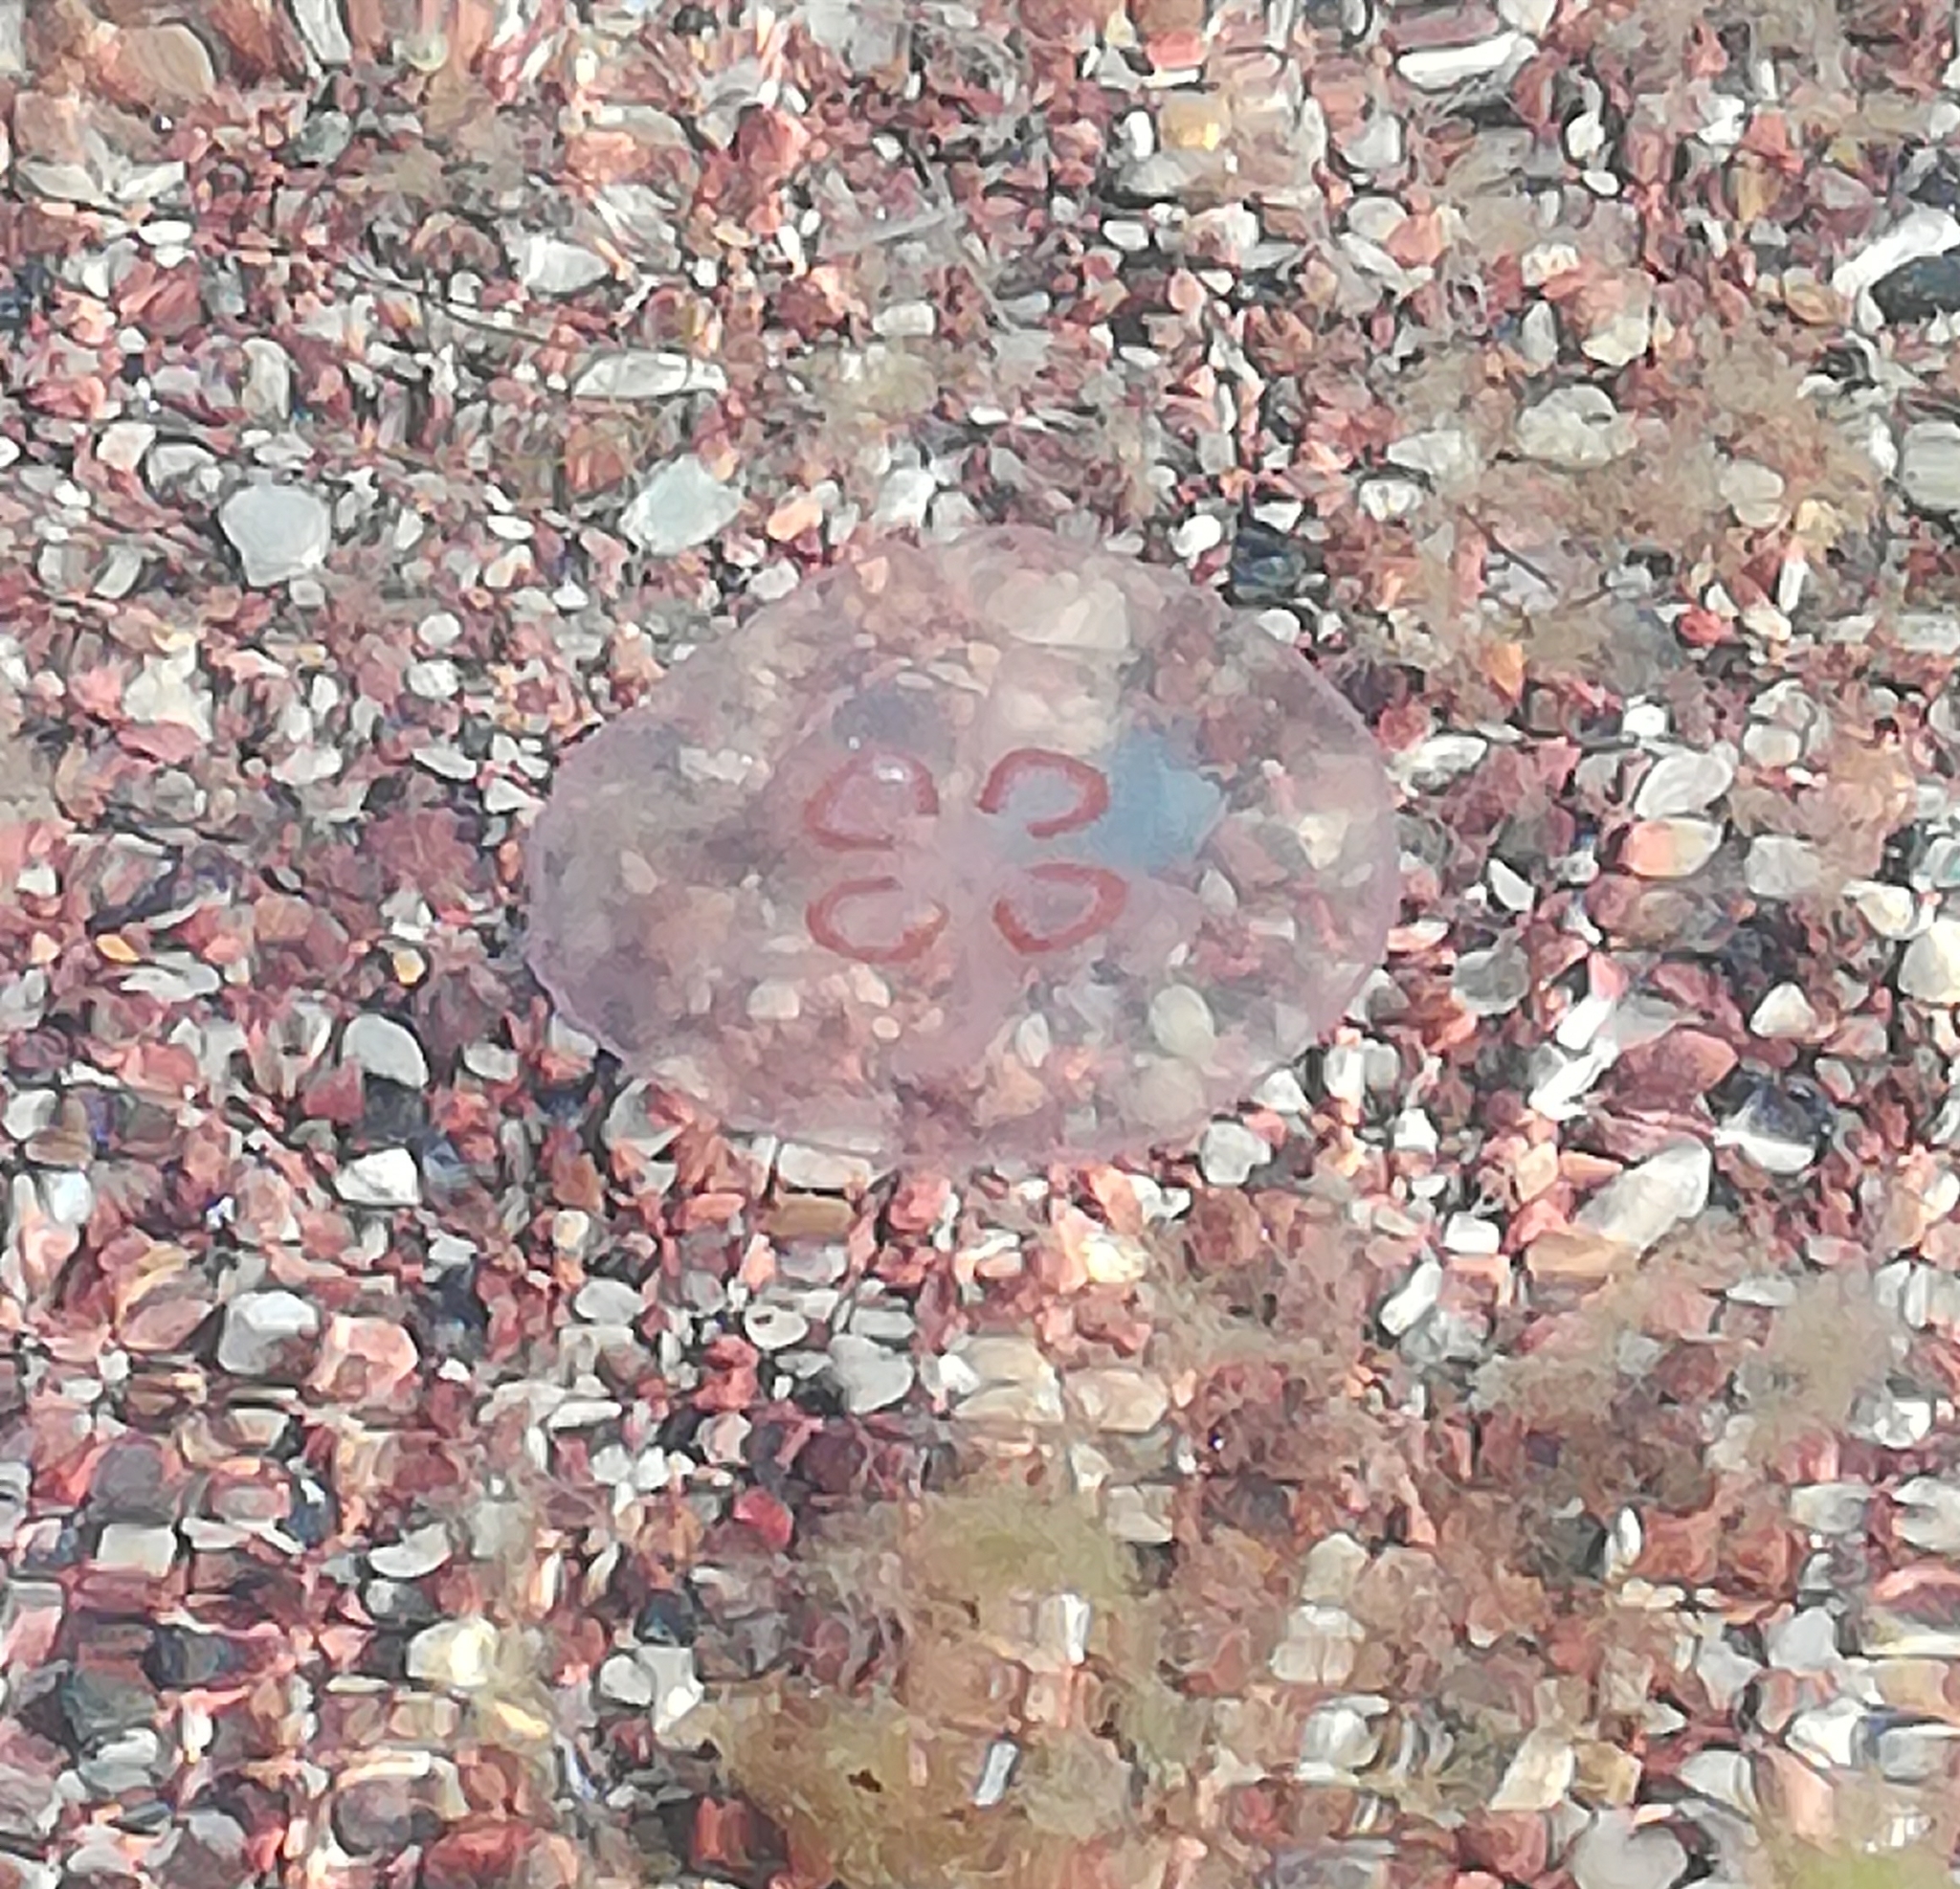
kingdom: Animalia
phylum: Cnidaria
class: Scyphozoa
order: Semaeostomeae
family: Ulmaridae
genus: Aurelia
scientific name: Aurelia aurita
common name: Moon jellyfish
